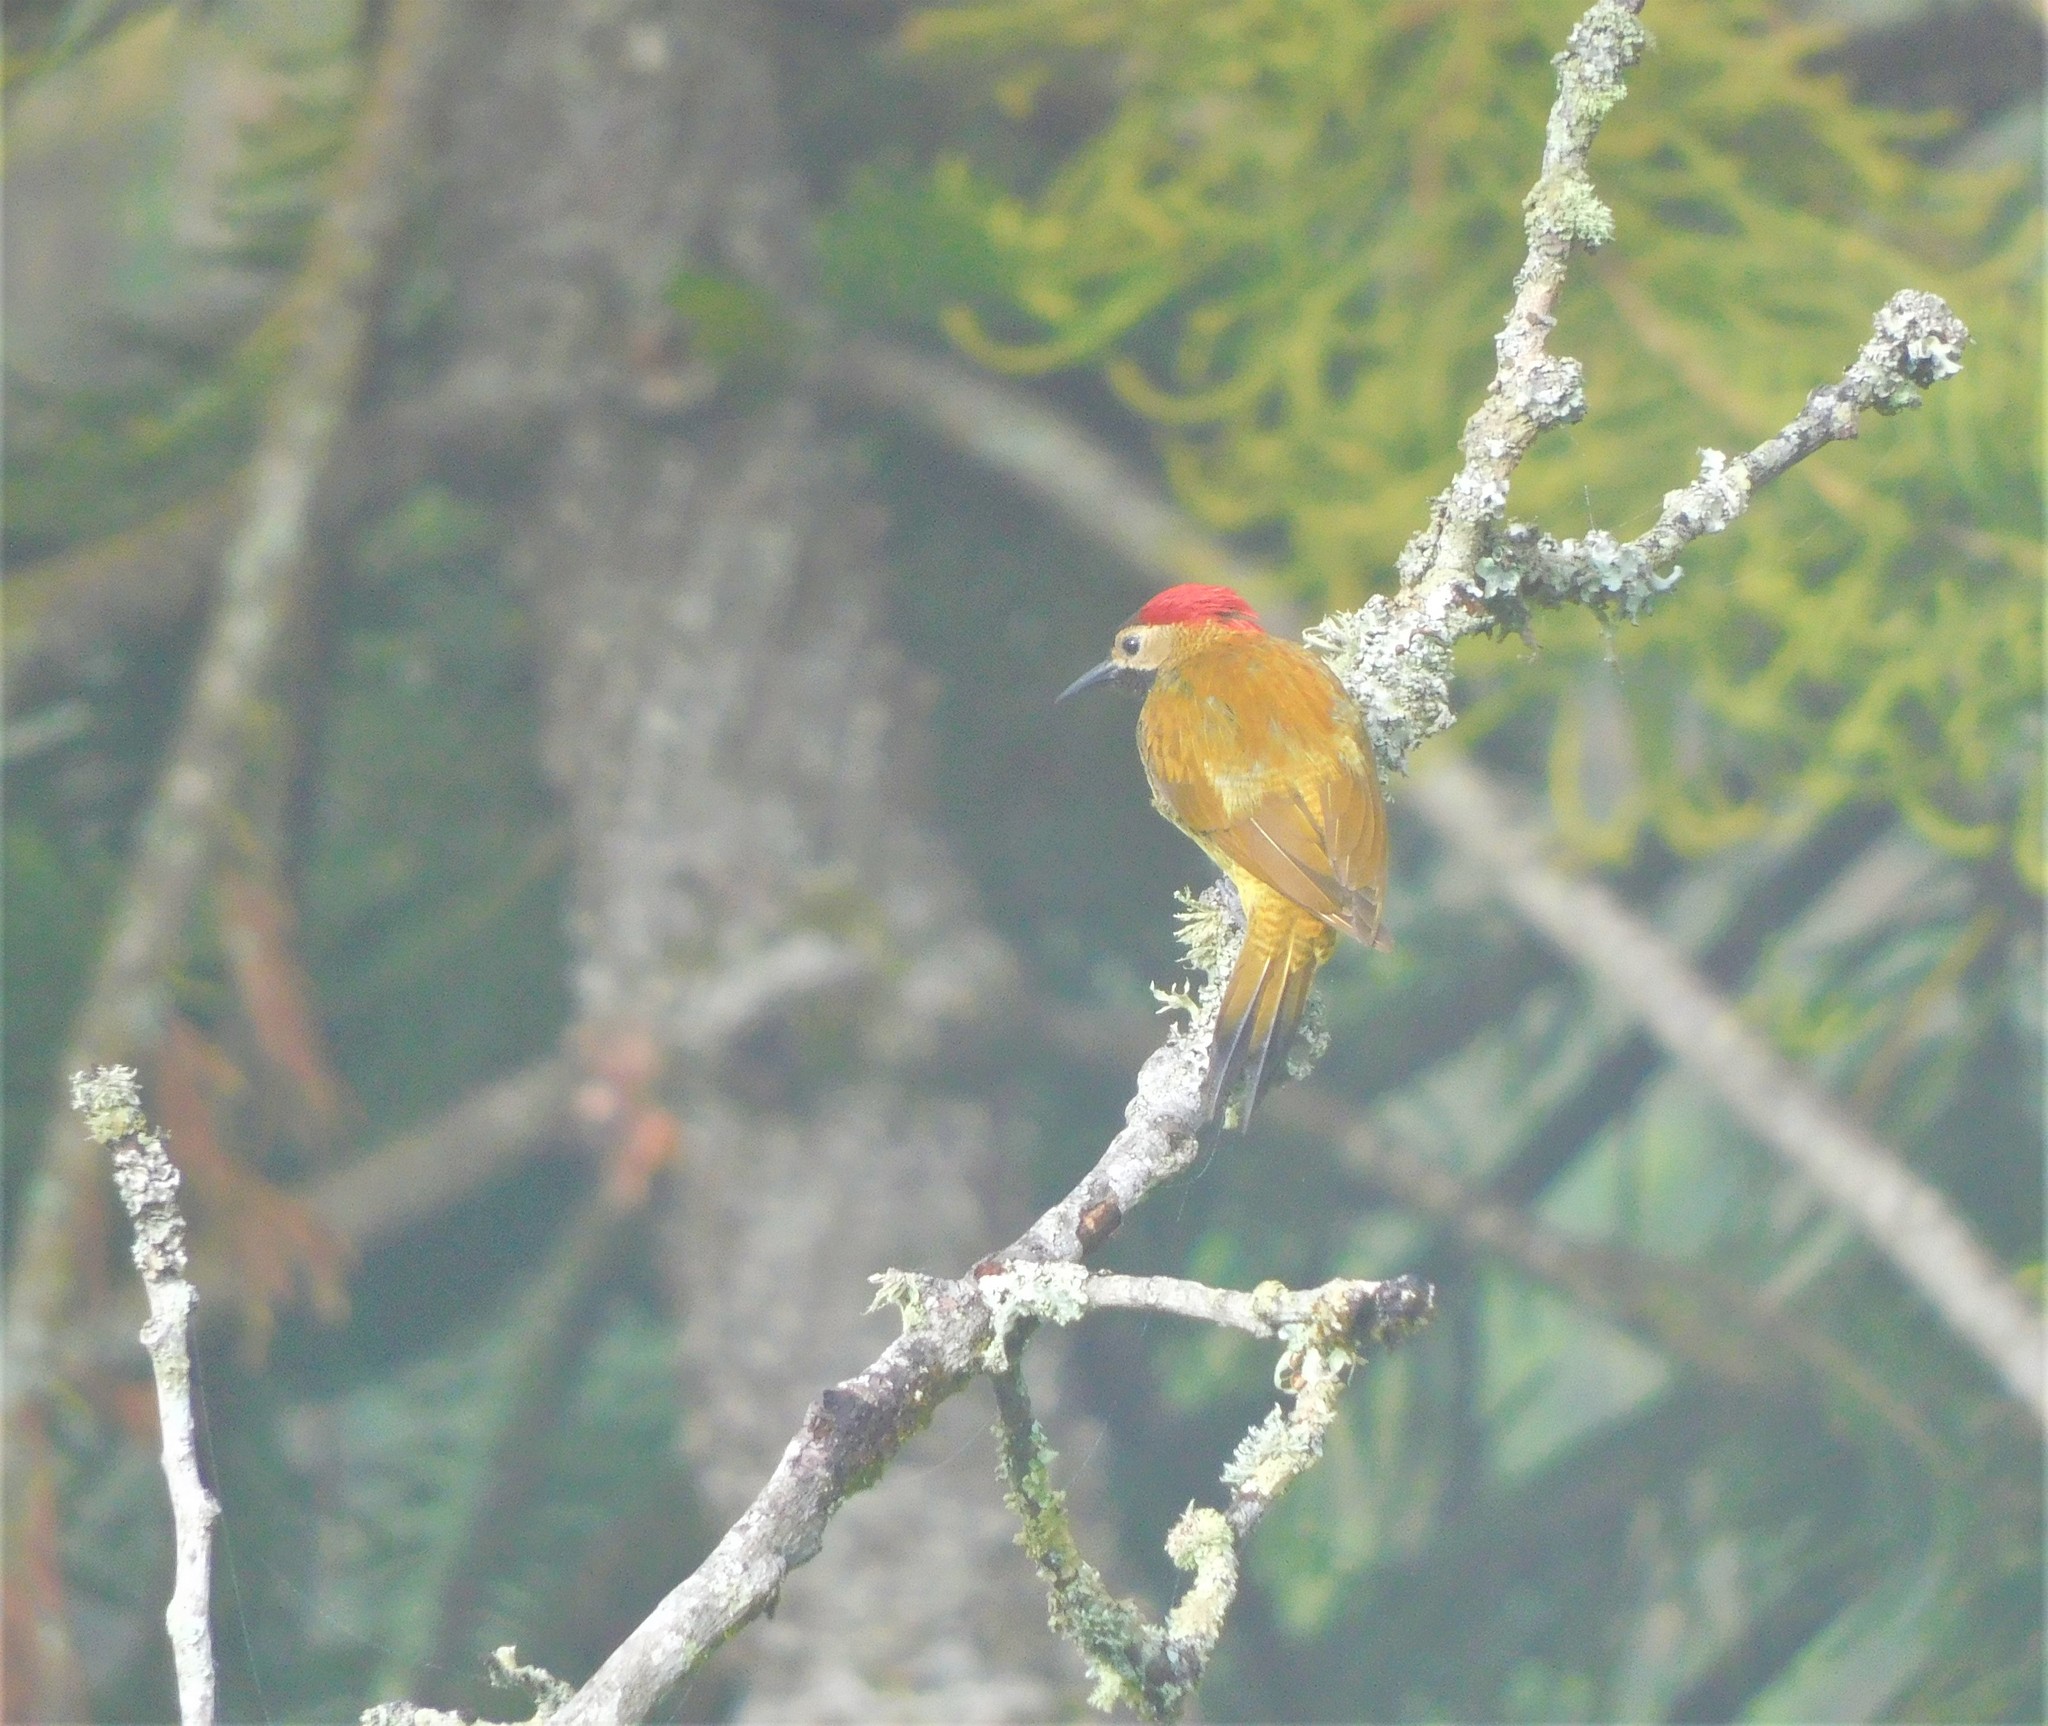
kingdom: Animalia
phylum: Chordata
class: Aves
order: Piciformes
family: Picidae
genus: Colaptes
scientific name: Colaptes rubiginosus
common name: Golden-olive woodpecker
